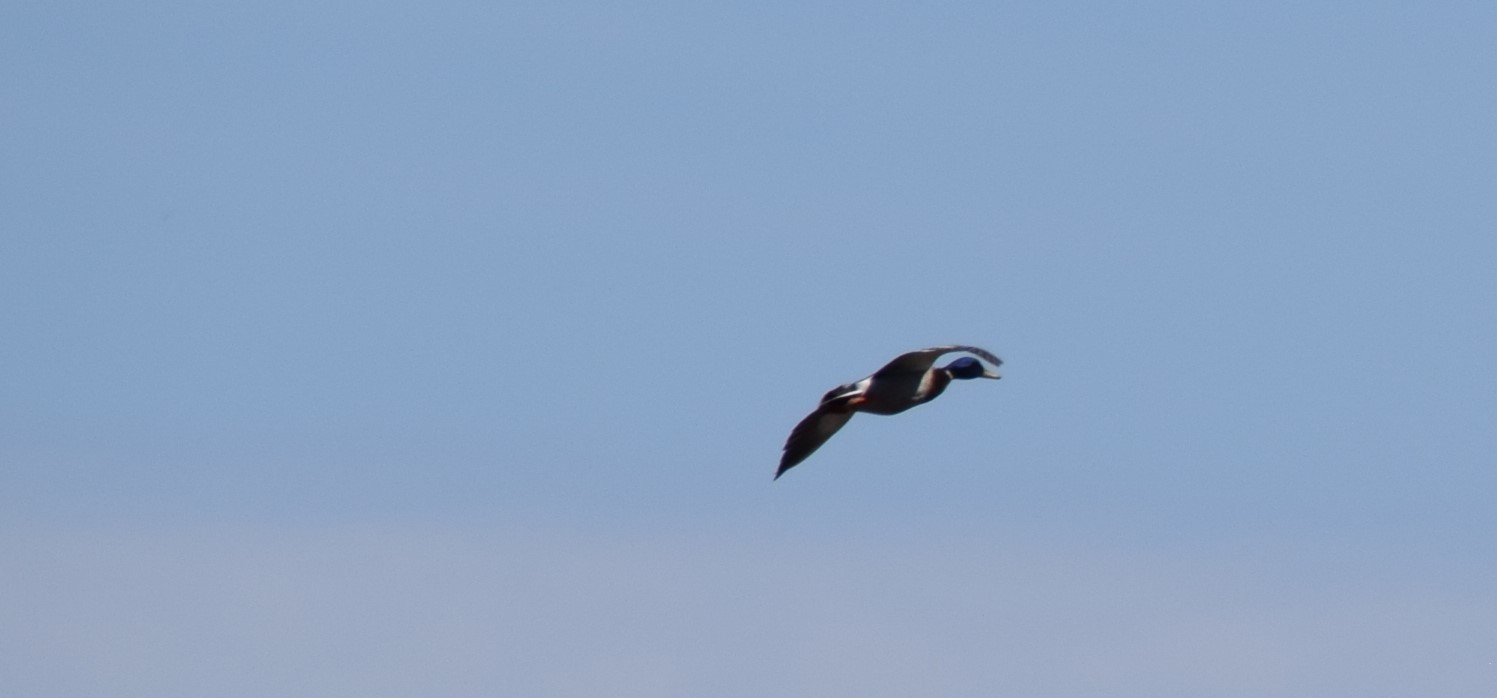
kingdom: Animalia
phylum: Chordata
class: Aves
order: Anseriformes
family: Anatidae
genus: Anas
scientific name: Anas platyrhynchos
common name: Mallard
